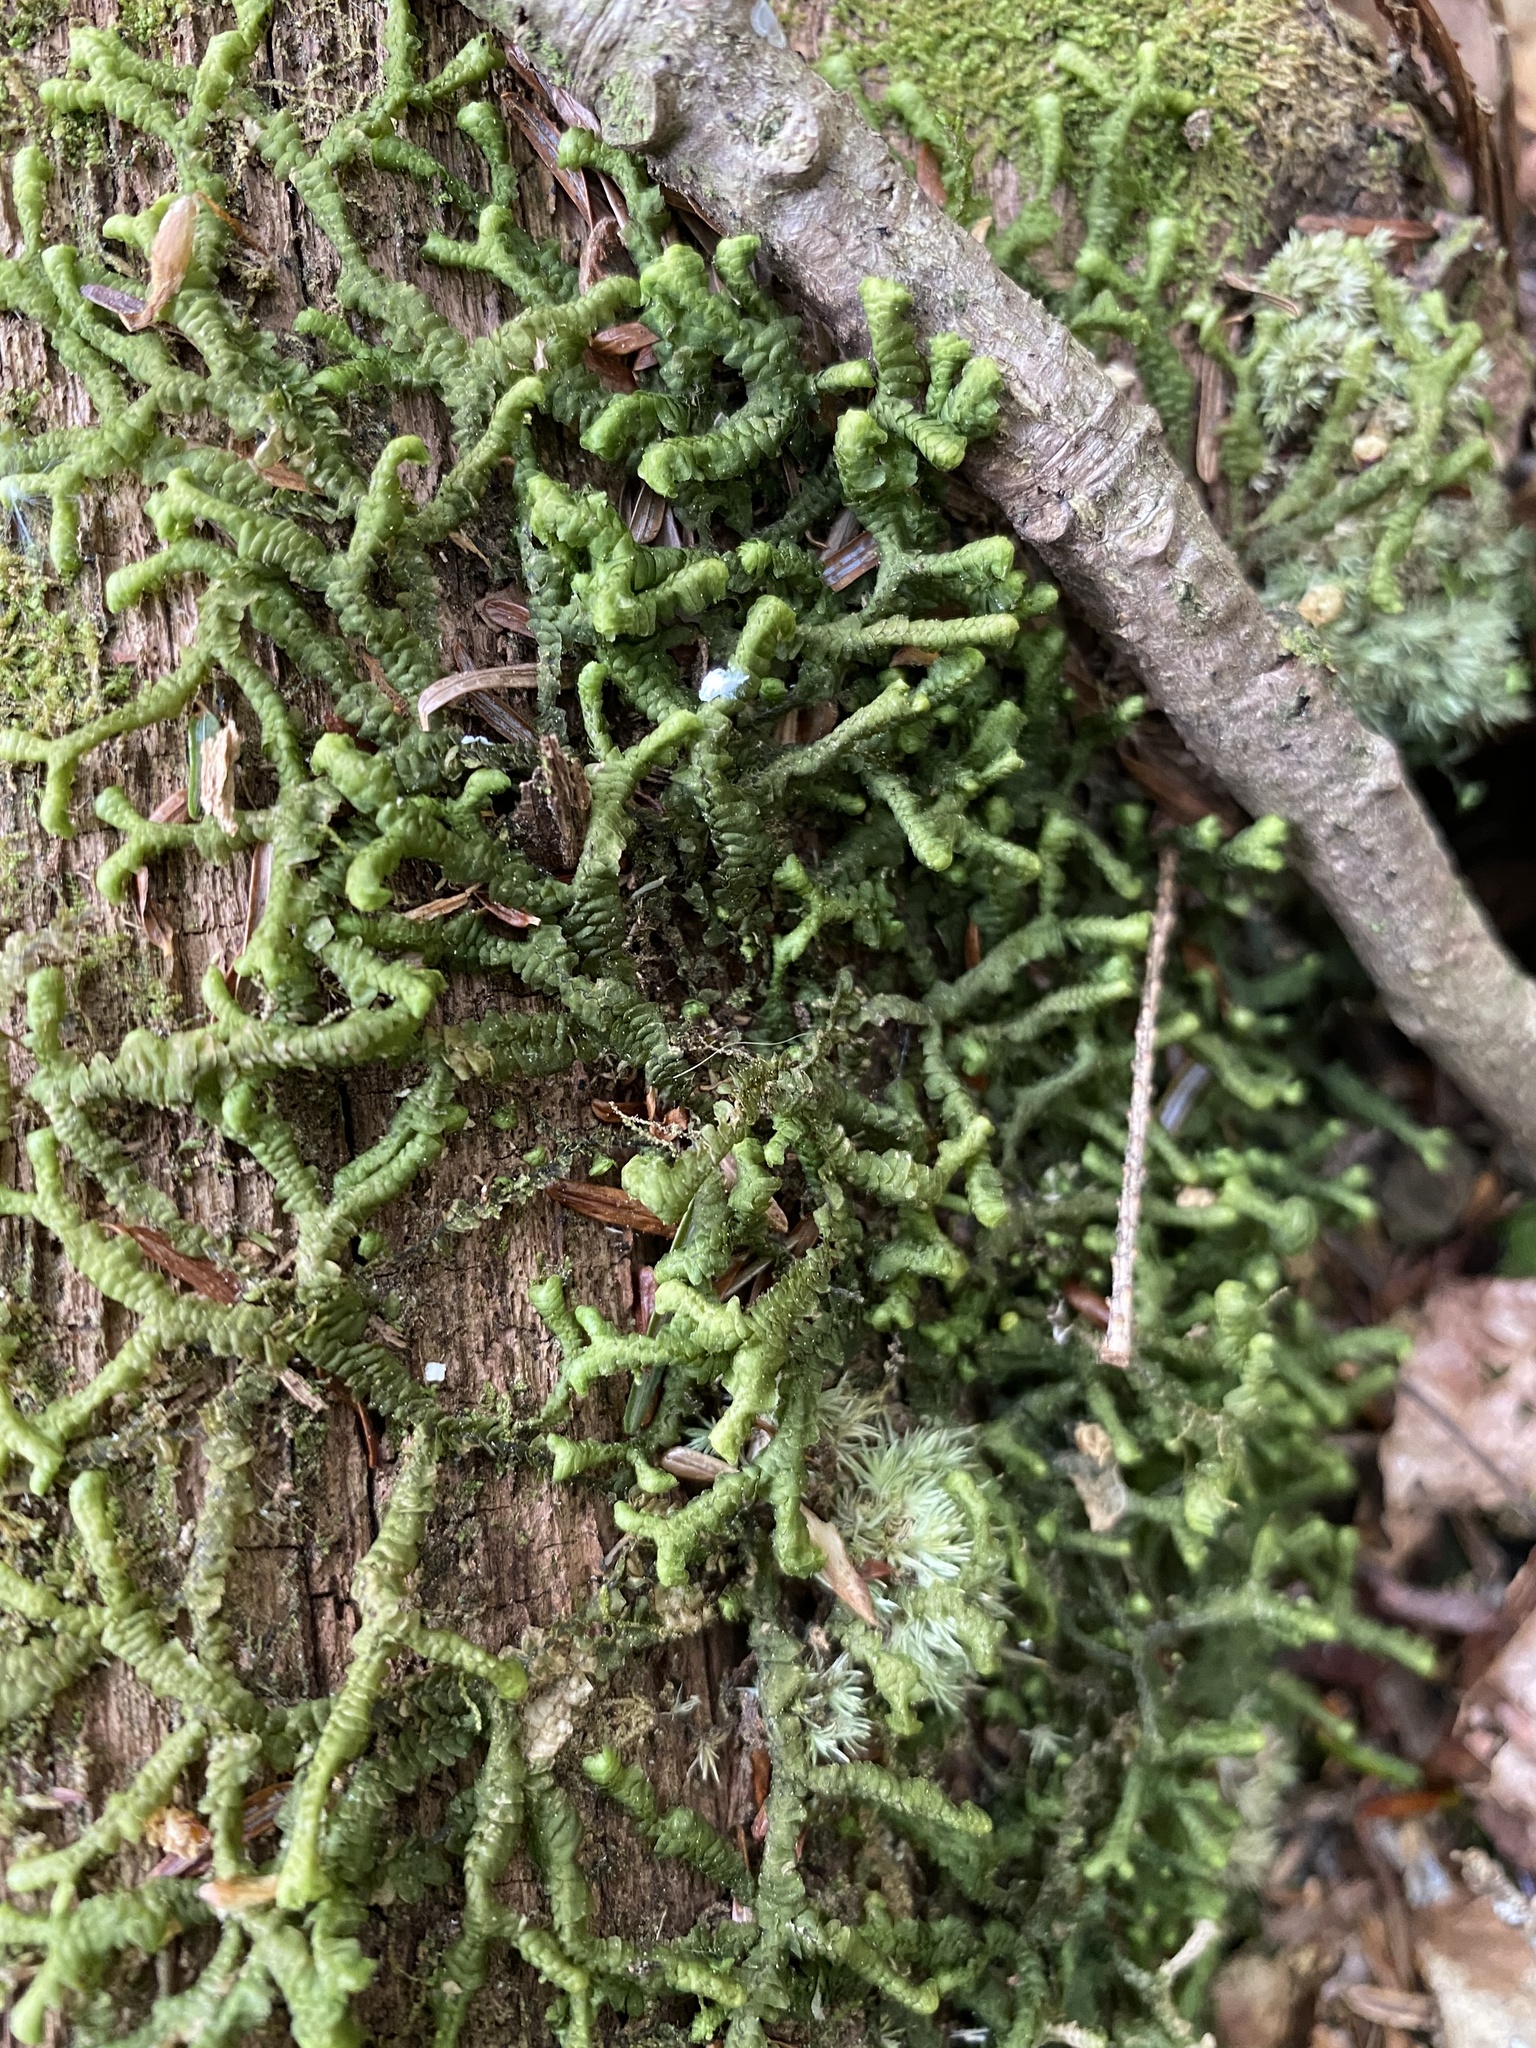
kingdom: Plantae
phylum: Marchantiophyta
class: Jungermanniopsida
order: Jungermanniales
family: Cephaloziaceae
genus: Nowellia
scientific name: Nowellia curvifolia
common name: Wood rustwort
